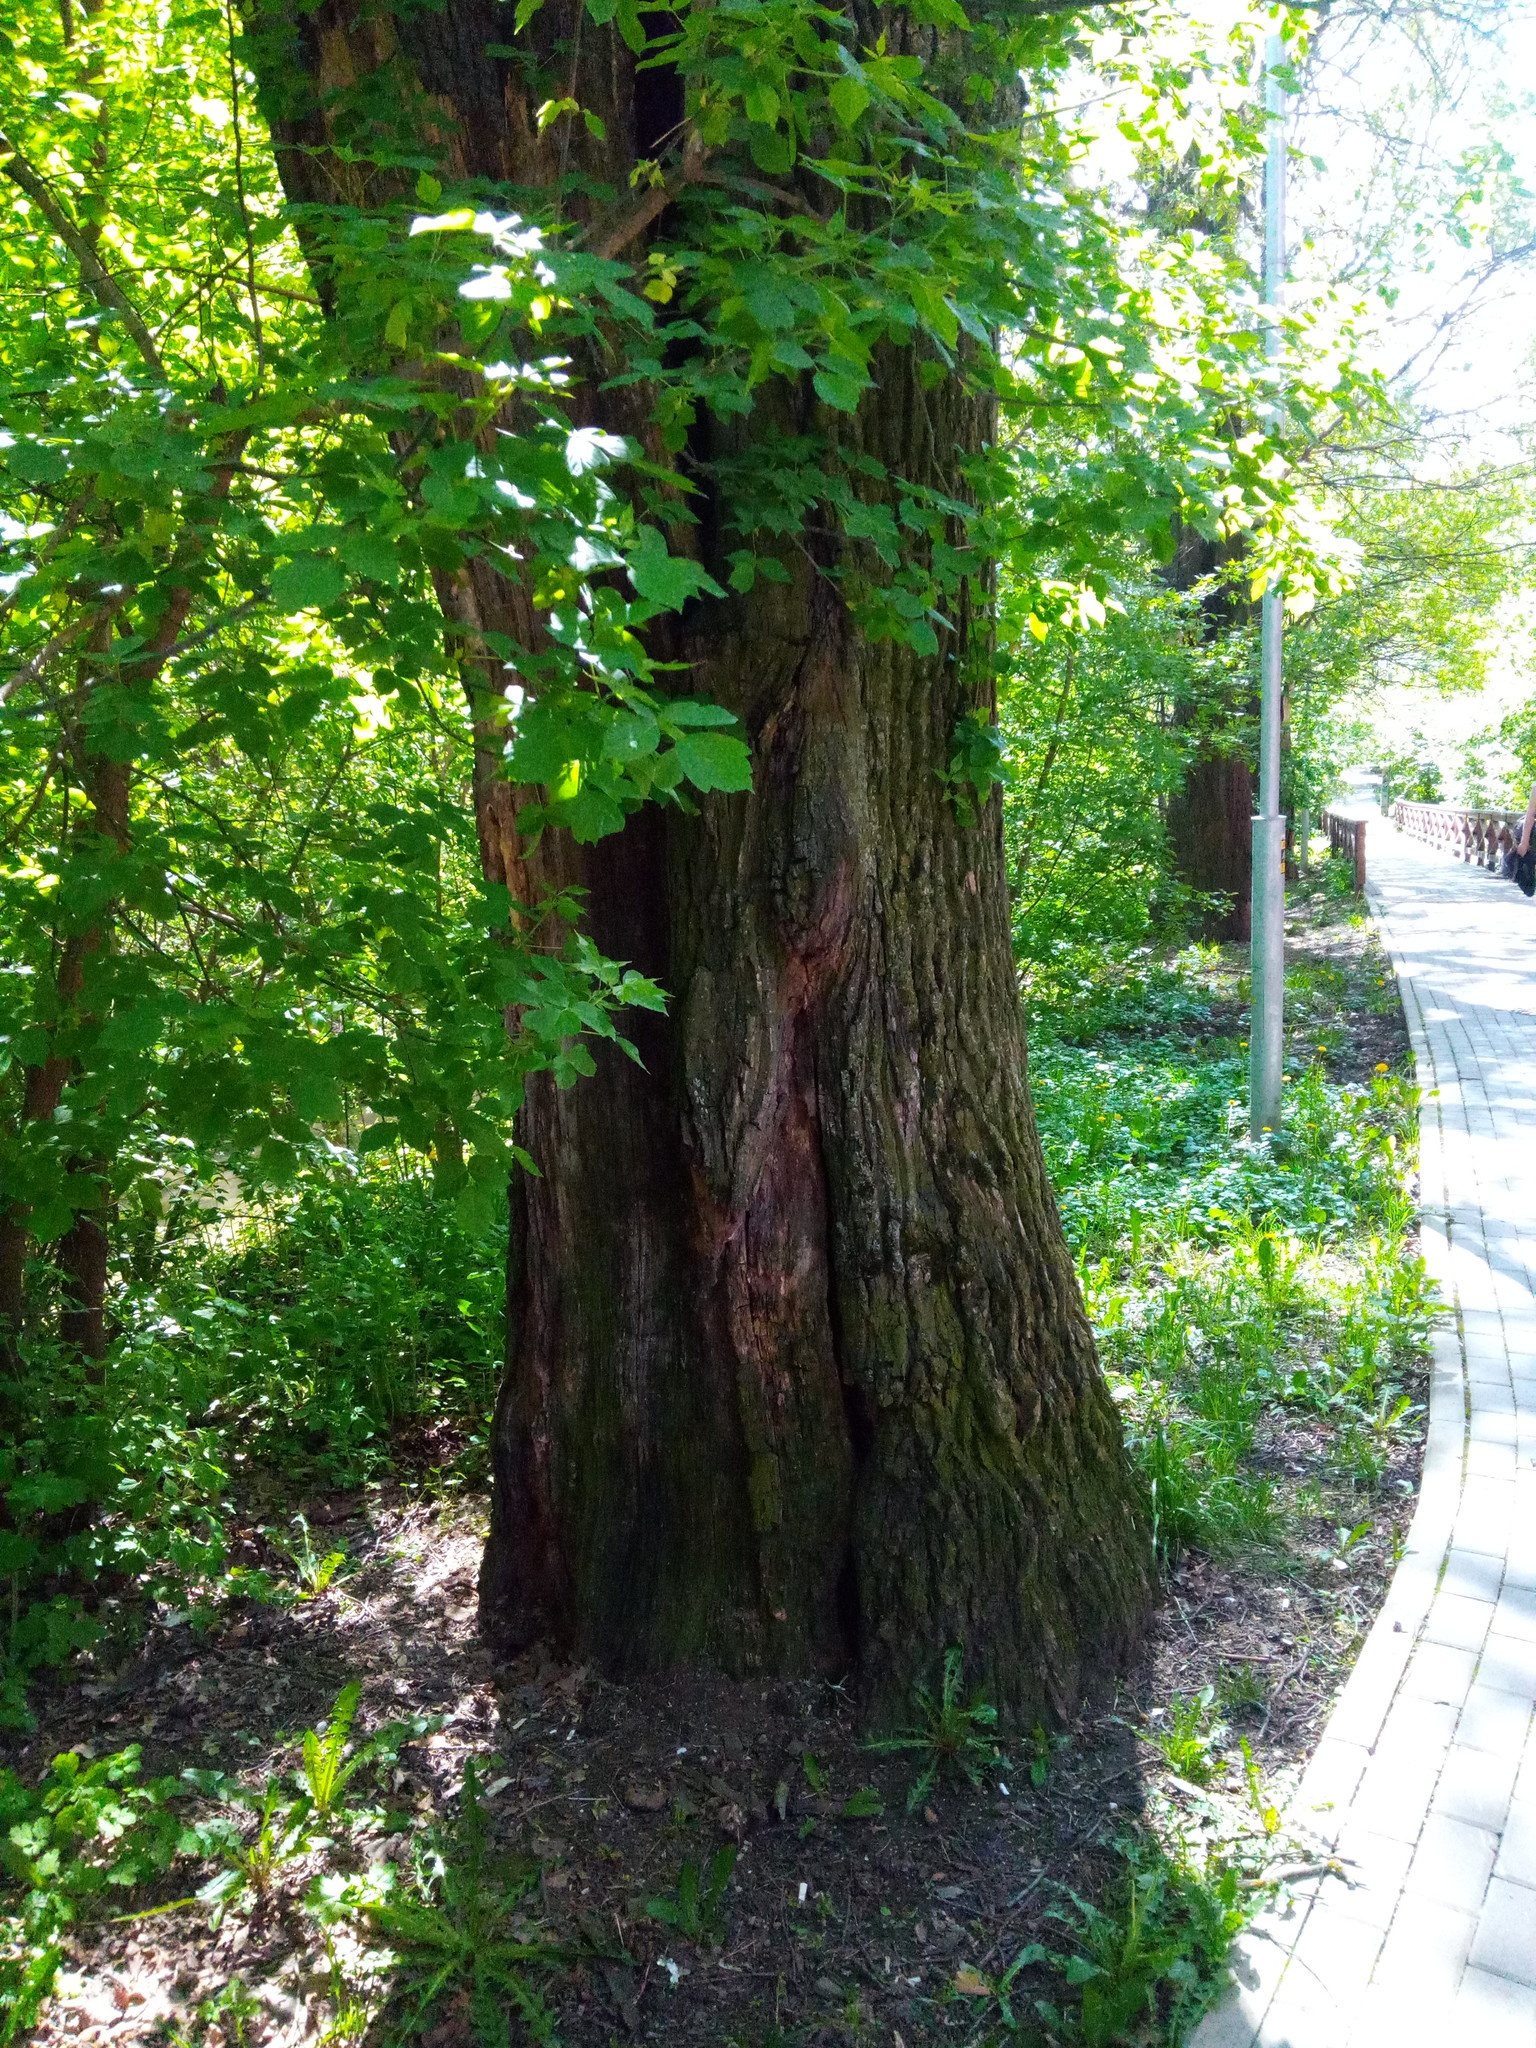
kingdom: Plantae
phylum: Tracheophyta
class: Magnoliopsida
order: Fagales
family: Fagaceae
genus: Quercus
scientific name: Quercus robur
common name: Pedunculate oak
